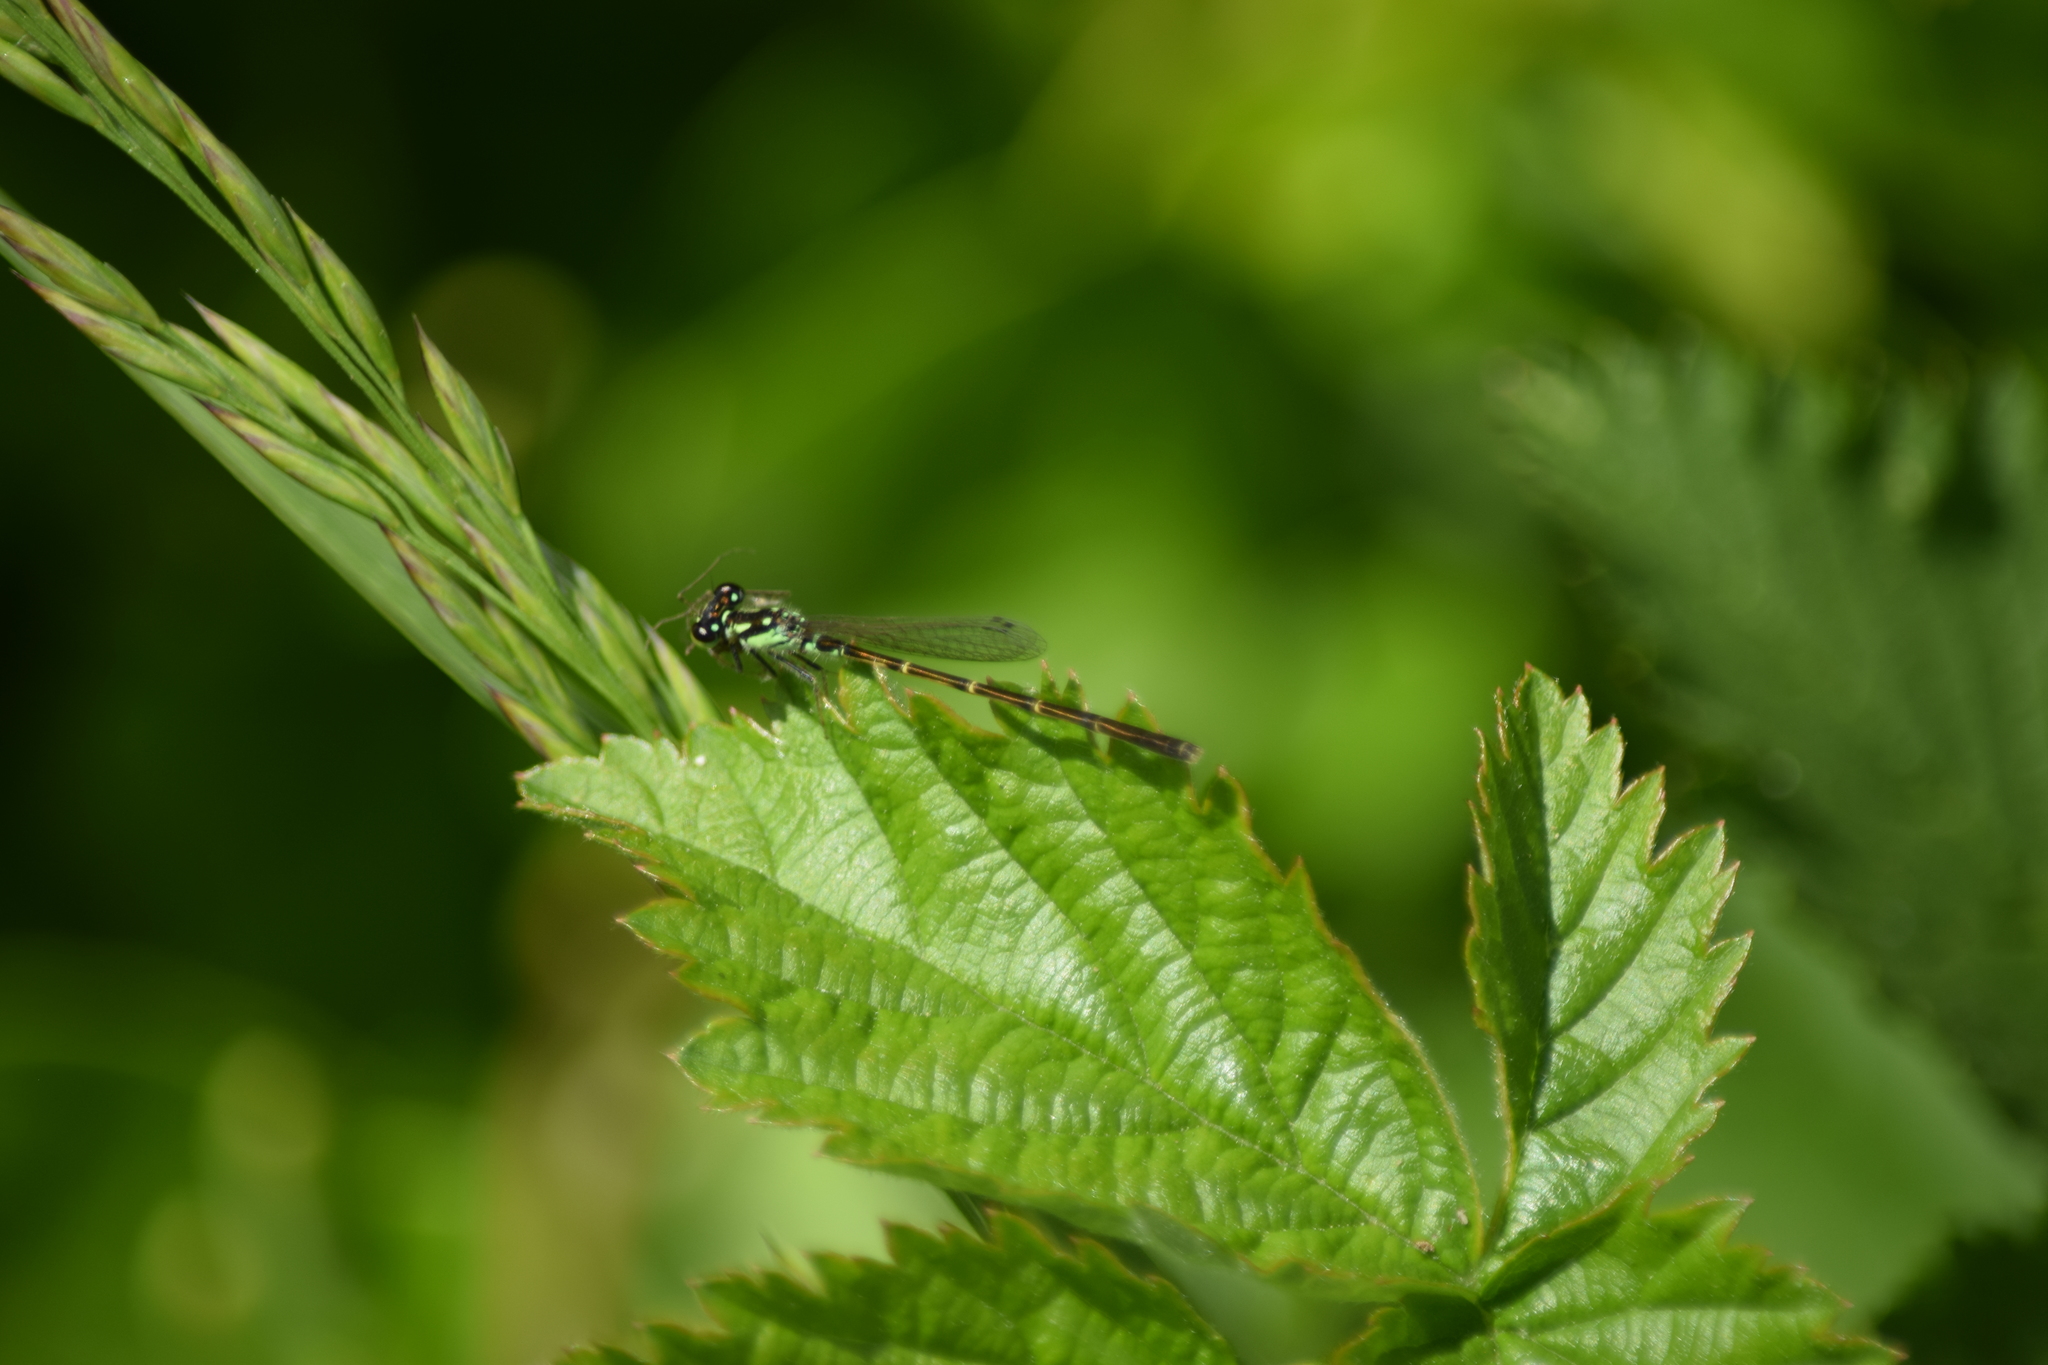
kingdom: Animalia
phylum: Arthropoda
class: Insecta
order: Odonata
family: Coenagrionidae
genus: Ischnura
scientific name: Ischnura posita
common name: Fragile forktail
